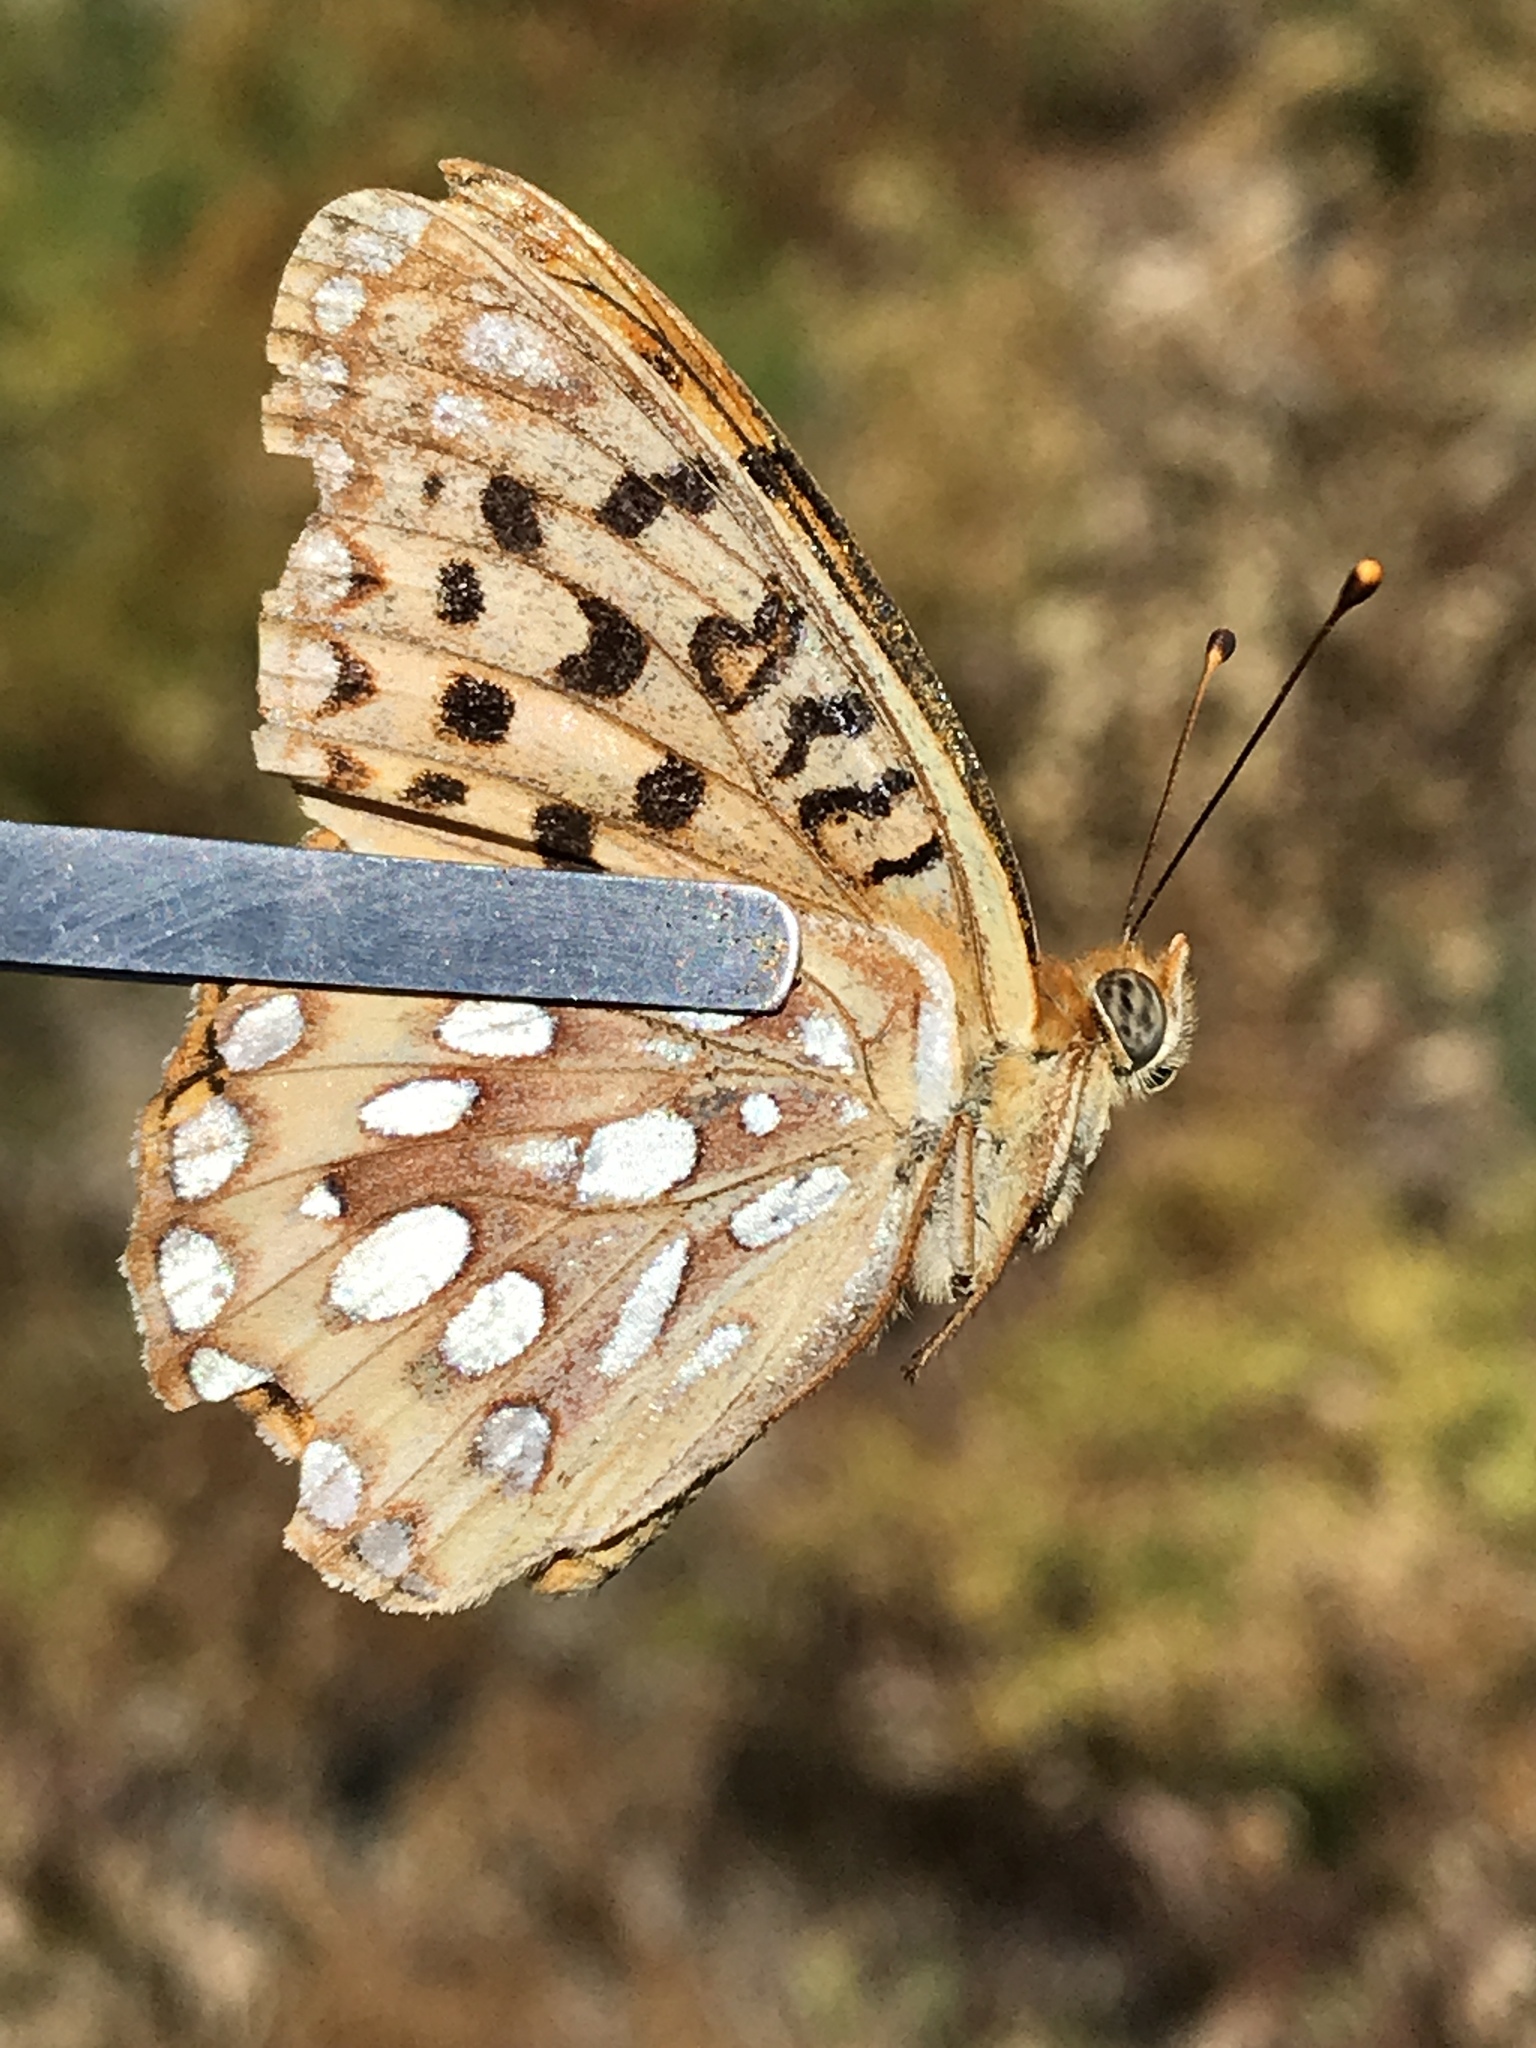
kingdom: Animalia
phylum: Arthropoda
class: Insecta
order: Lepidoptera
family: Nymphalidae
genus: Speyeria
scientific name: Speyeria egleis
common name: Great basin fritillary
